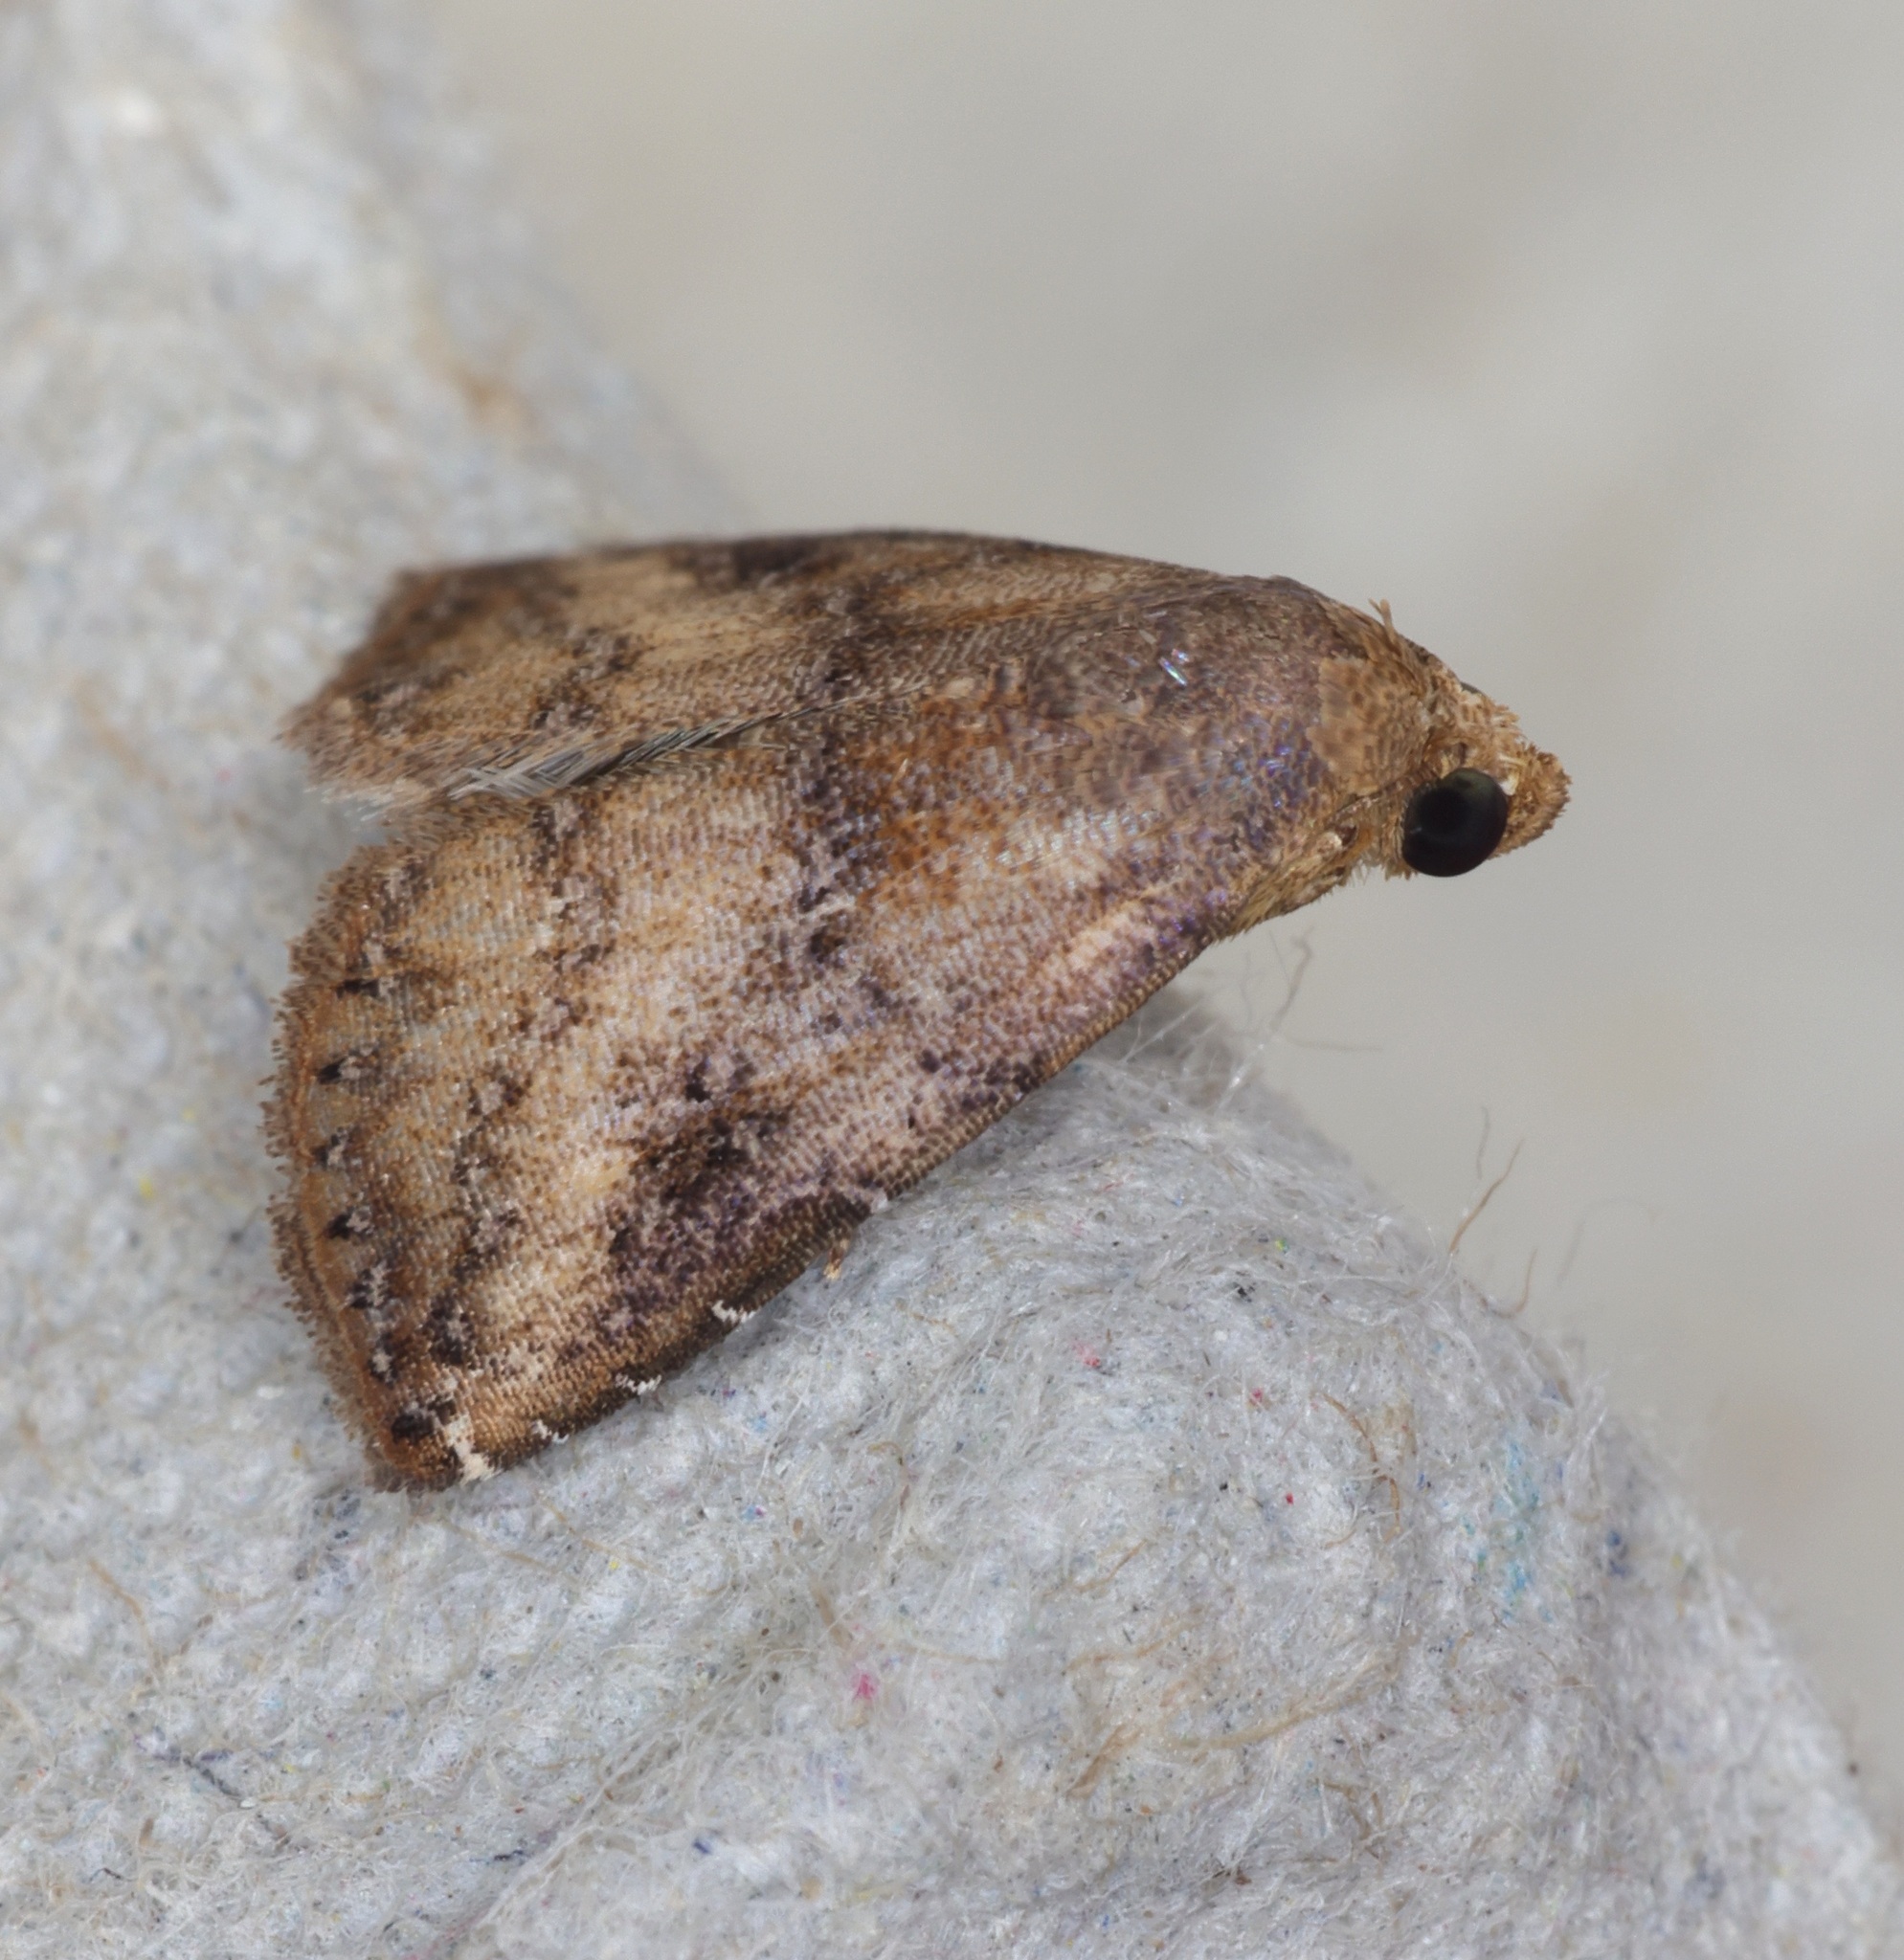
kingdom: Animalia
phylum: Arthropoda
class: Insecta
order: Lepidoptera
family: Erebidae
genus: Rivula
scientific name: Rivula sordida
